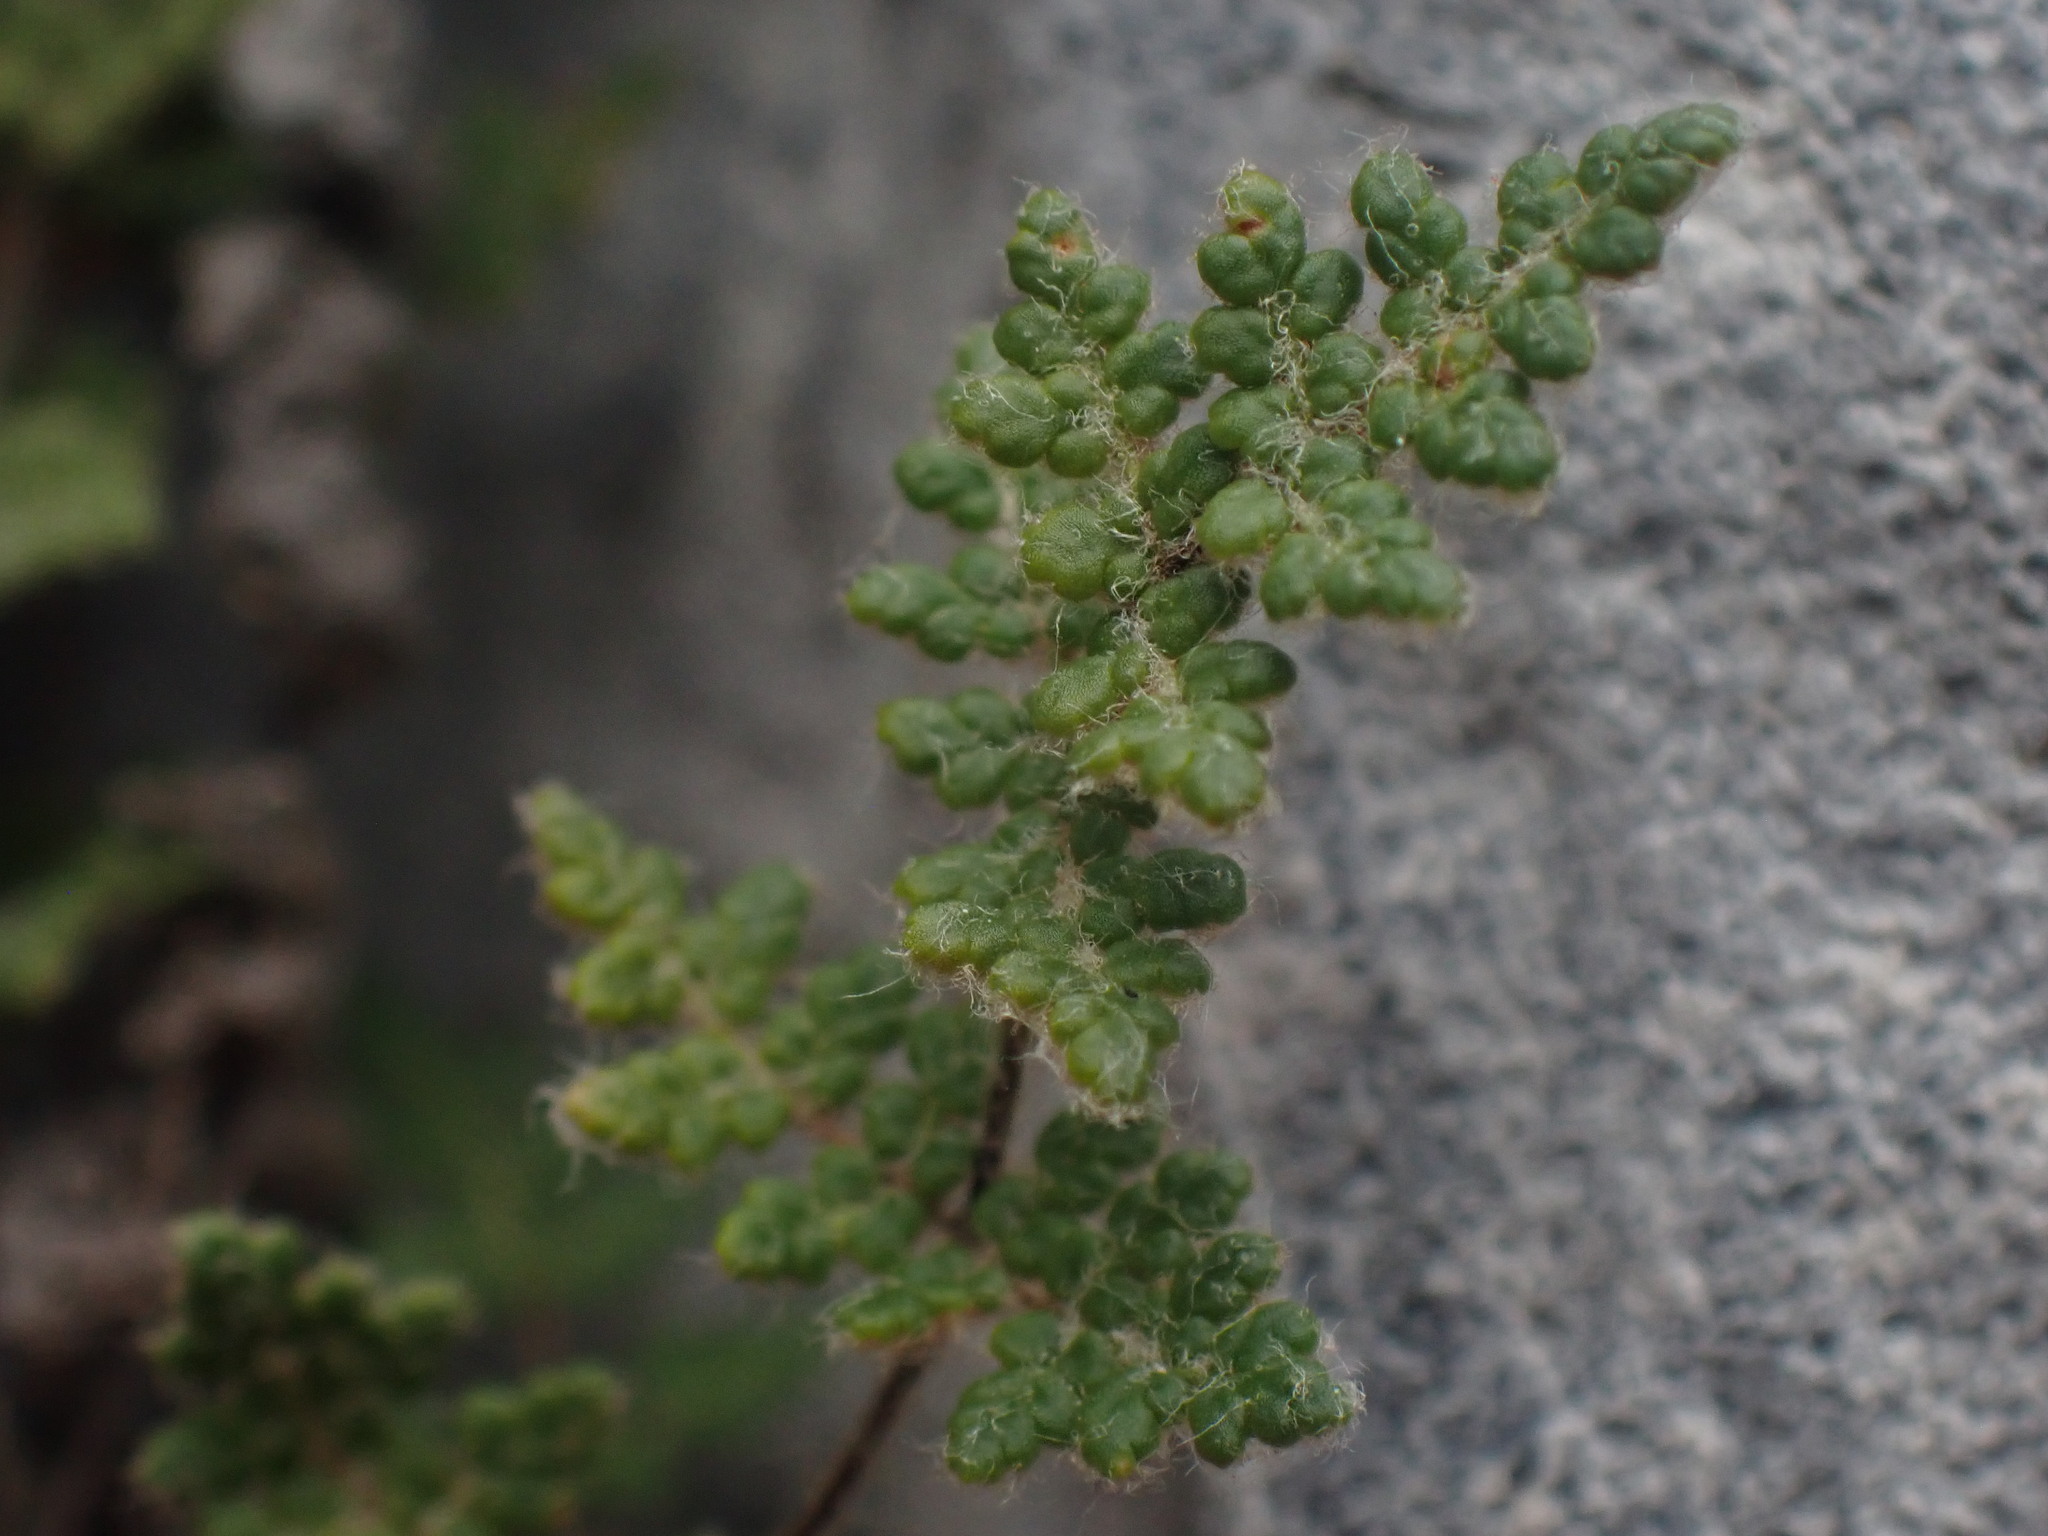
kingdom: Plantae
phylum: Tracheophyta
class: Polypodiopsida
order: Polypodiales
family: Pteridaceae
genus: Myriopteris
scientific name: Myriopteris gracilis
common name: Fee's lip fern
